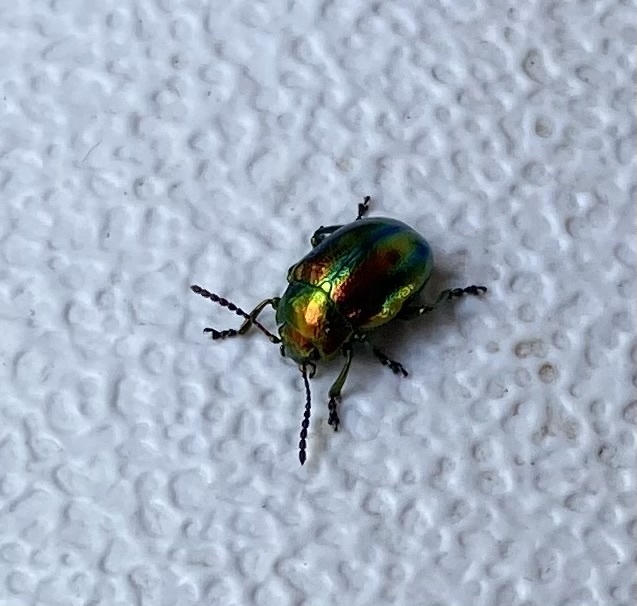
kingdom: Animalia
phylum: Arthropoda
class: Insecta
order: Coleoptera
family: Chrysomelidae
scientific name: Chrysomelidae
